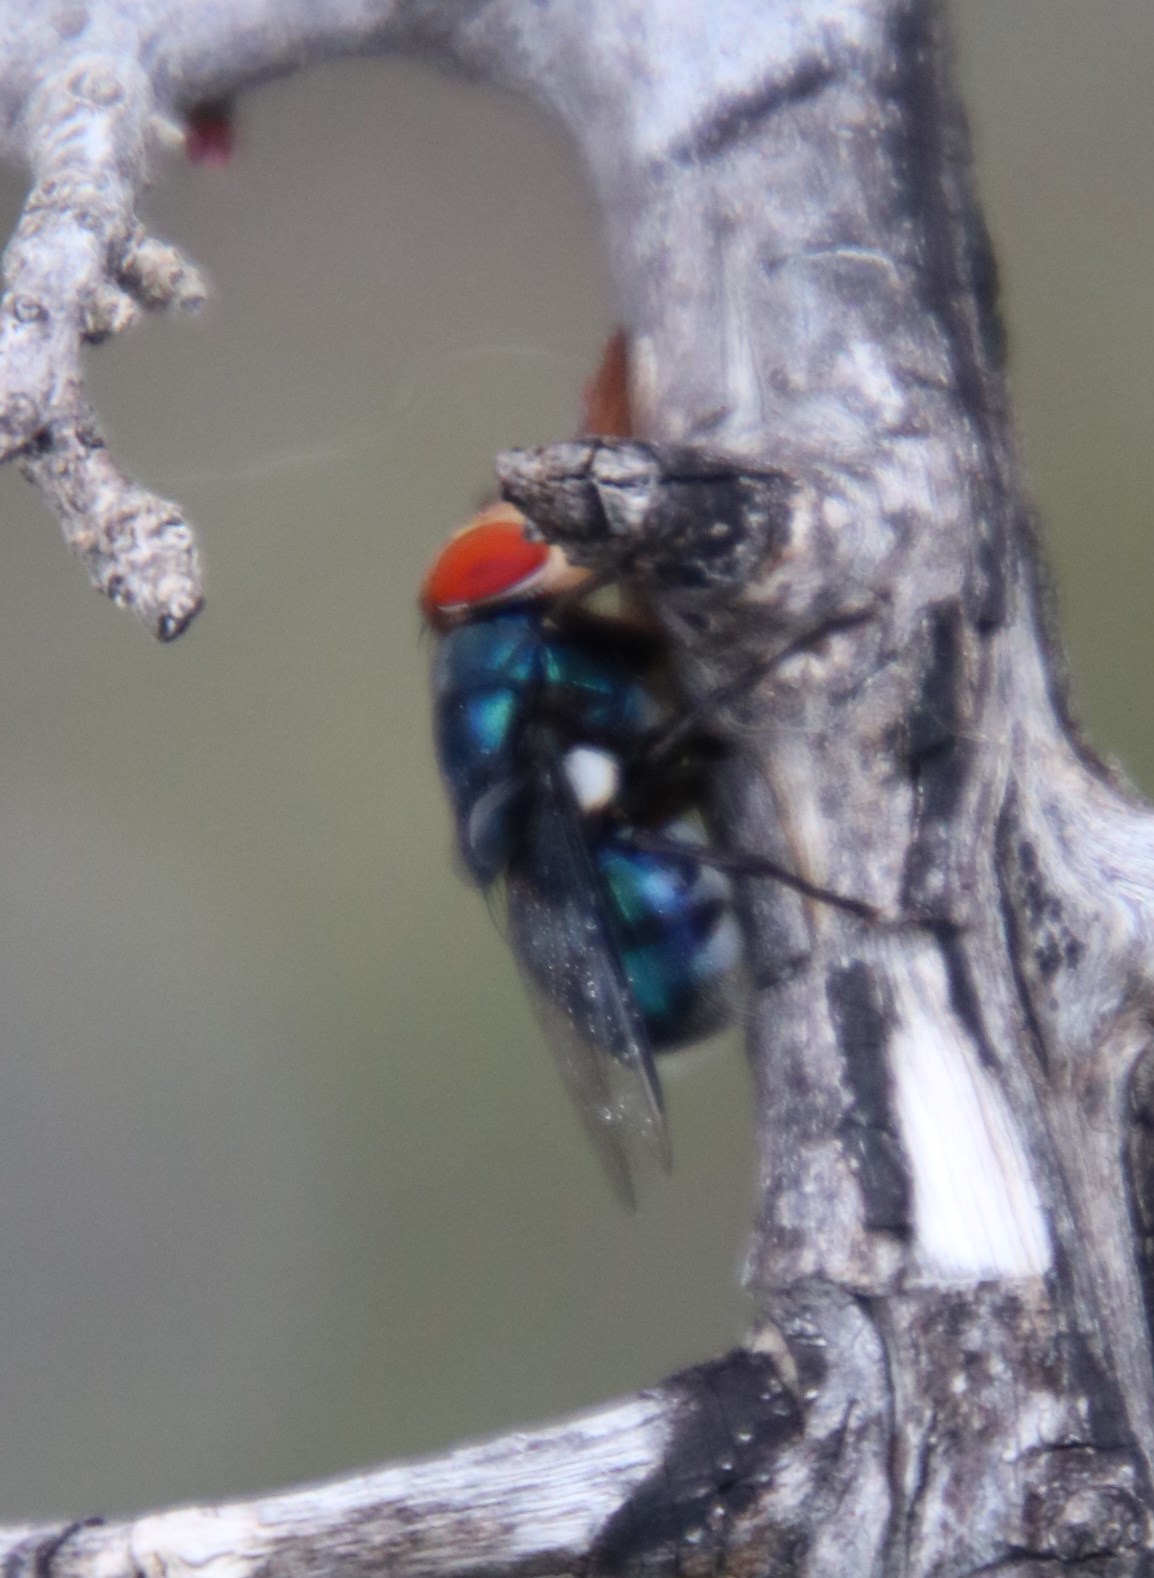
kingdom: Animalia
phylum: Arthropoda
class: Insecta
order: Diptera
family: Calliphoridae
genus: Chrysomya
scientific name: Chrysomya marginalis
